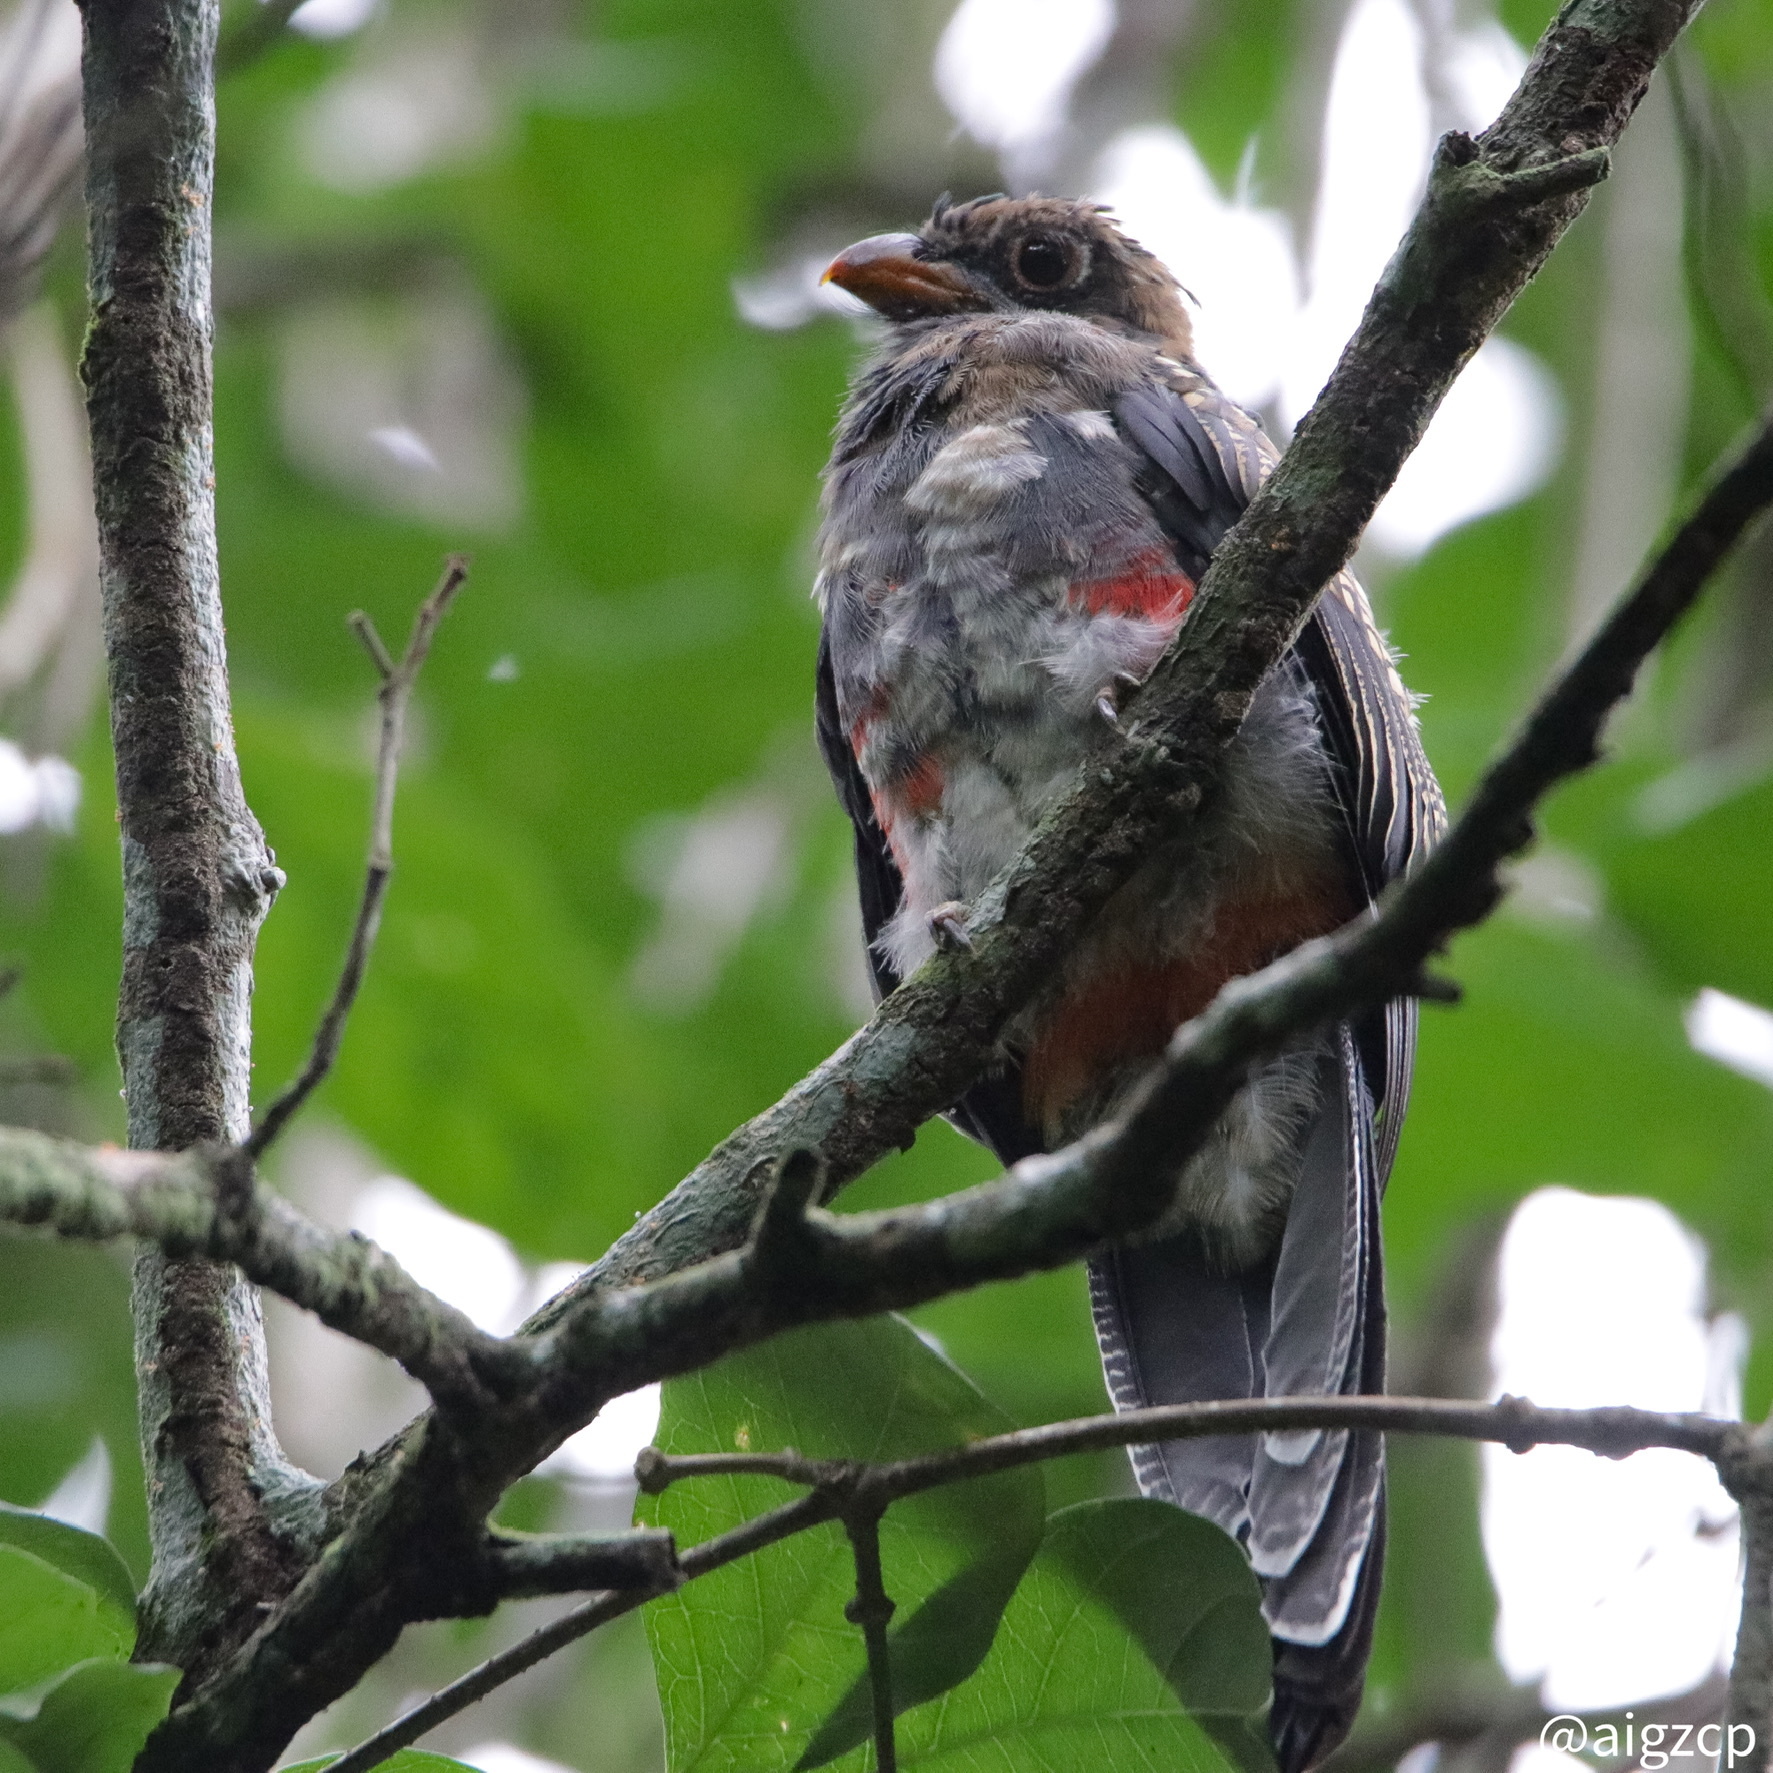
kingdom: Animalia
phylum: Chordata
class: Aves
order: Trogoniformes
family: Trogonidae
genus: Trogon
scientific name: Trogon massena
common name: Slaty-tailed trogon
